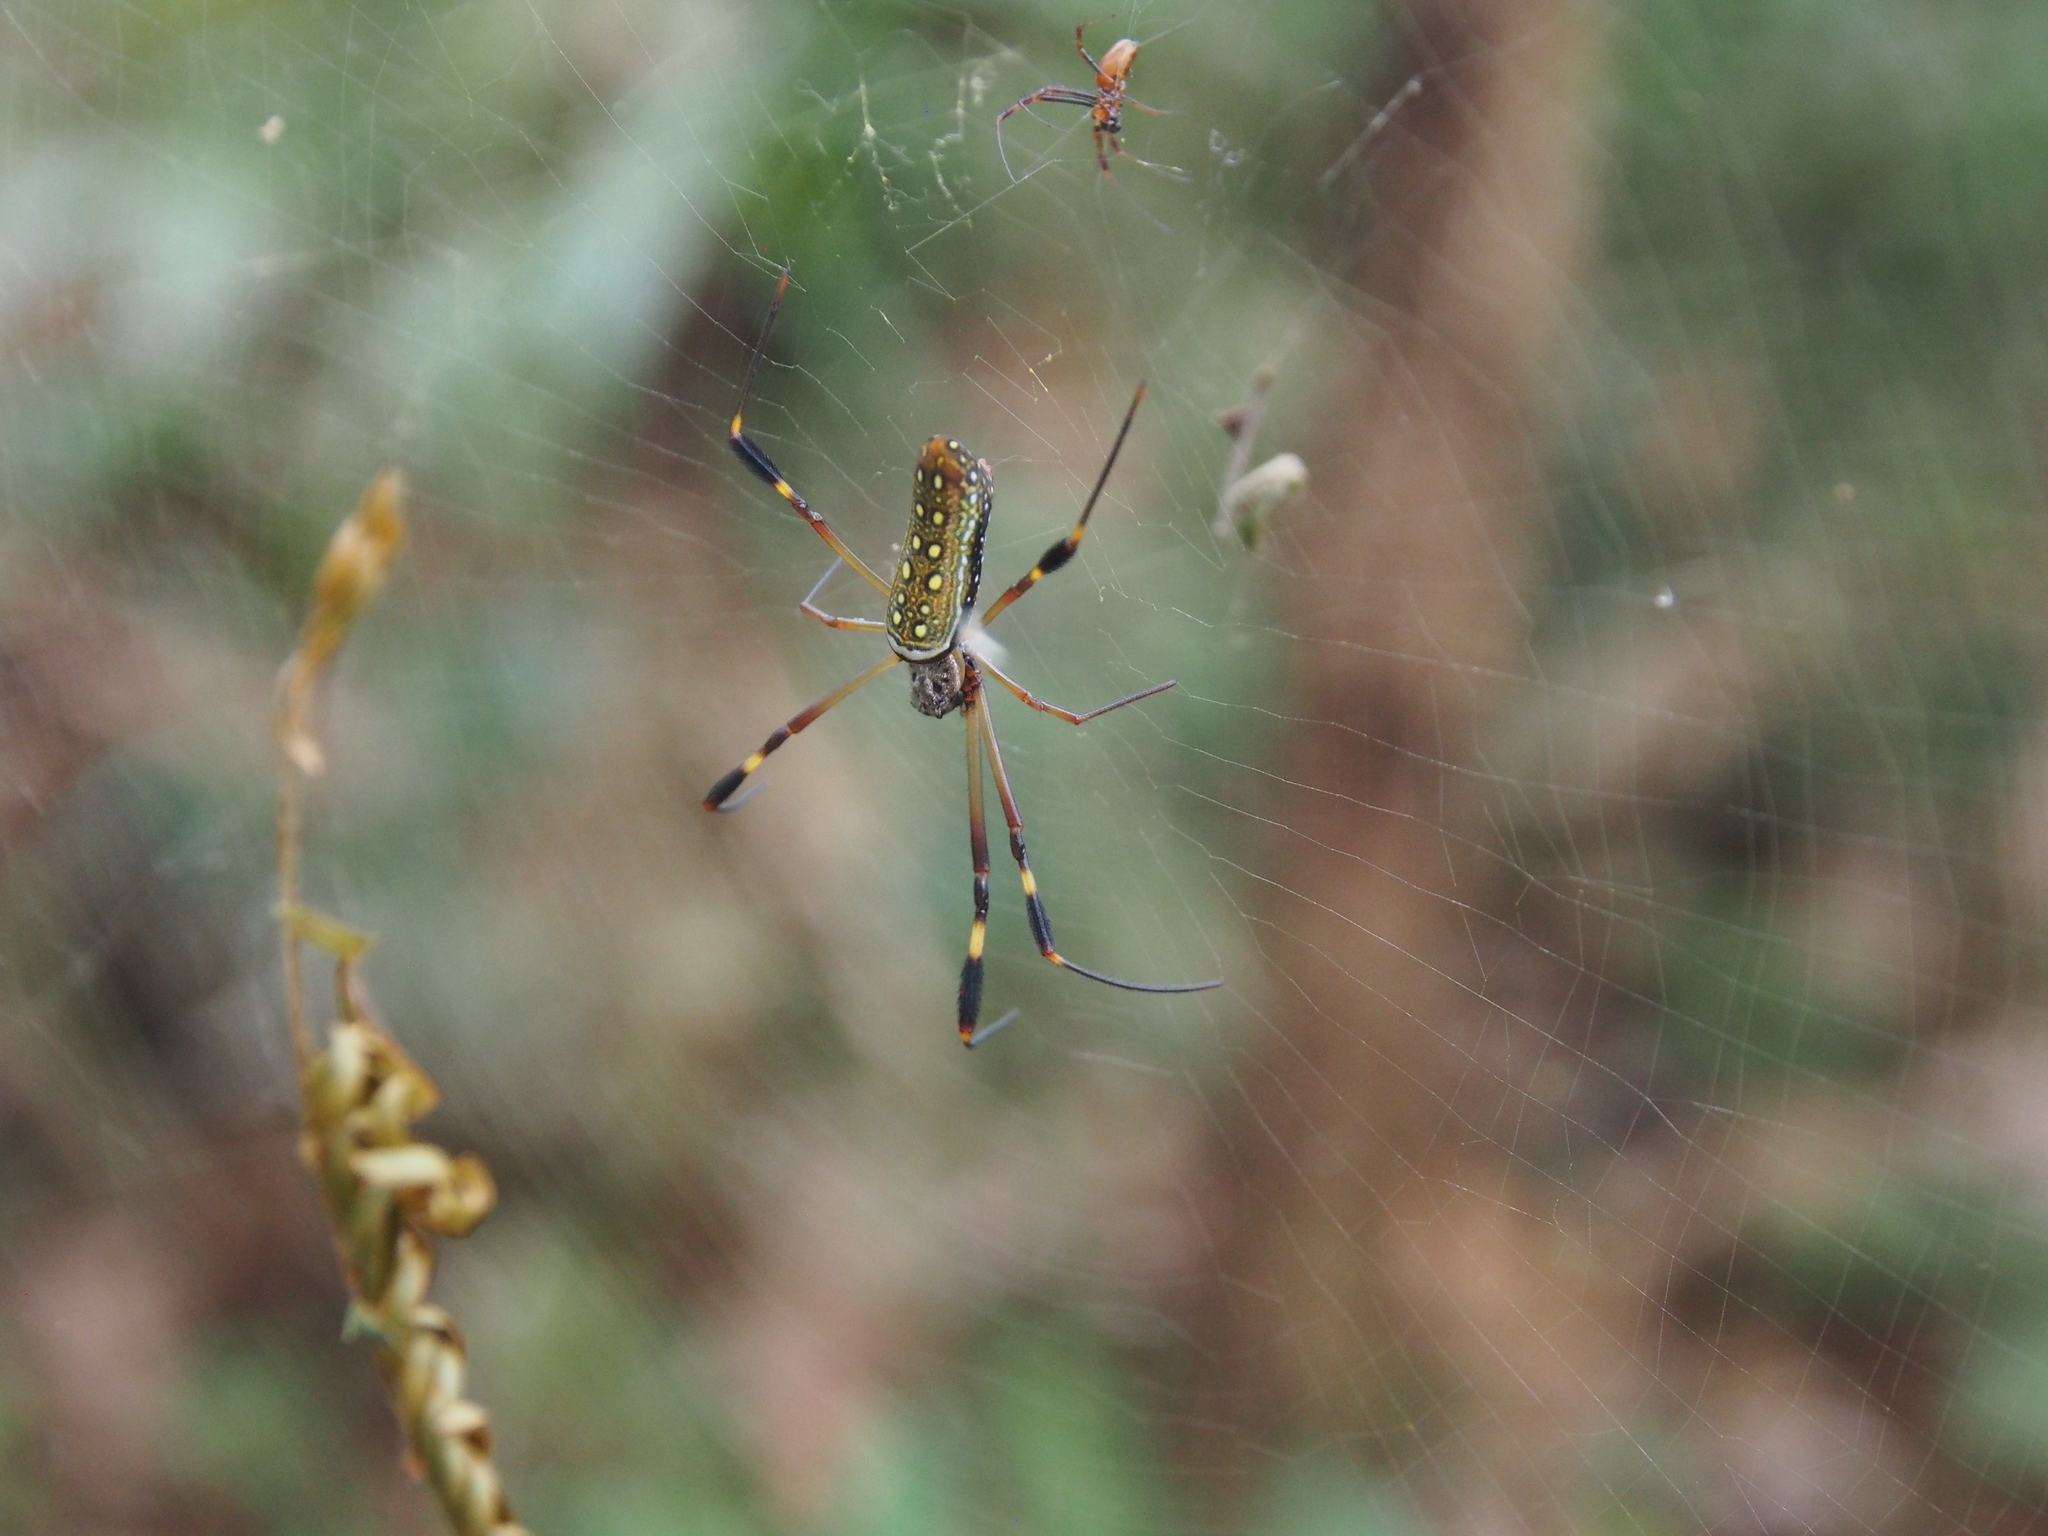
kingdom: Animalia
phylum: Arthropoda
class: Arachnida
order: Araneae
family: Araneidae
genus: Trichonephila
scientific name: Trichonephila clavipes
